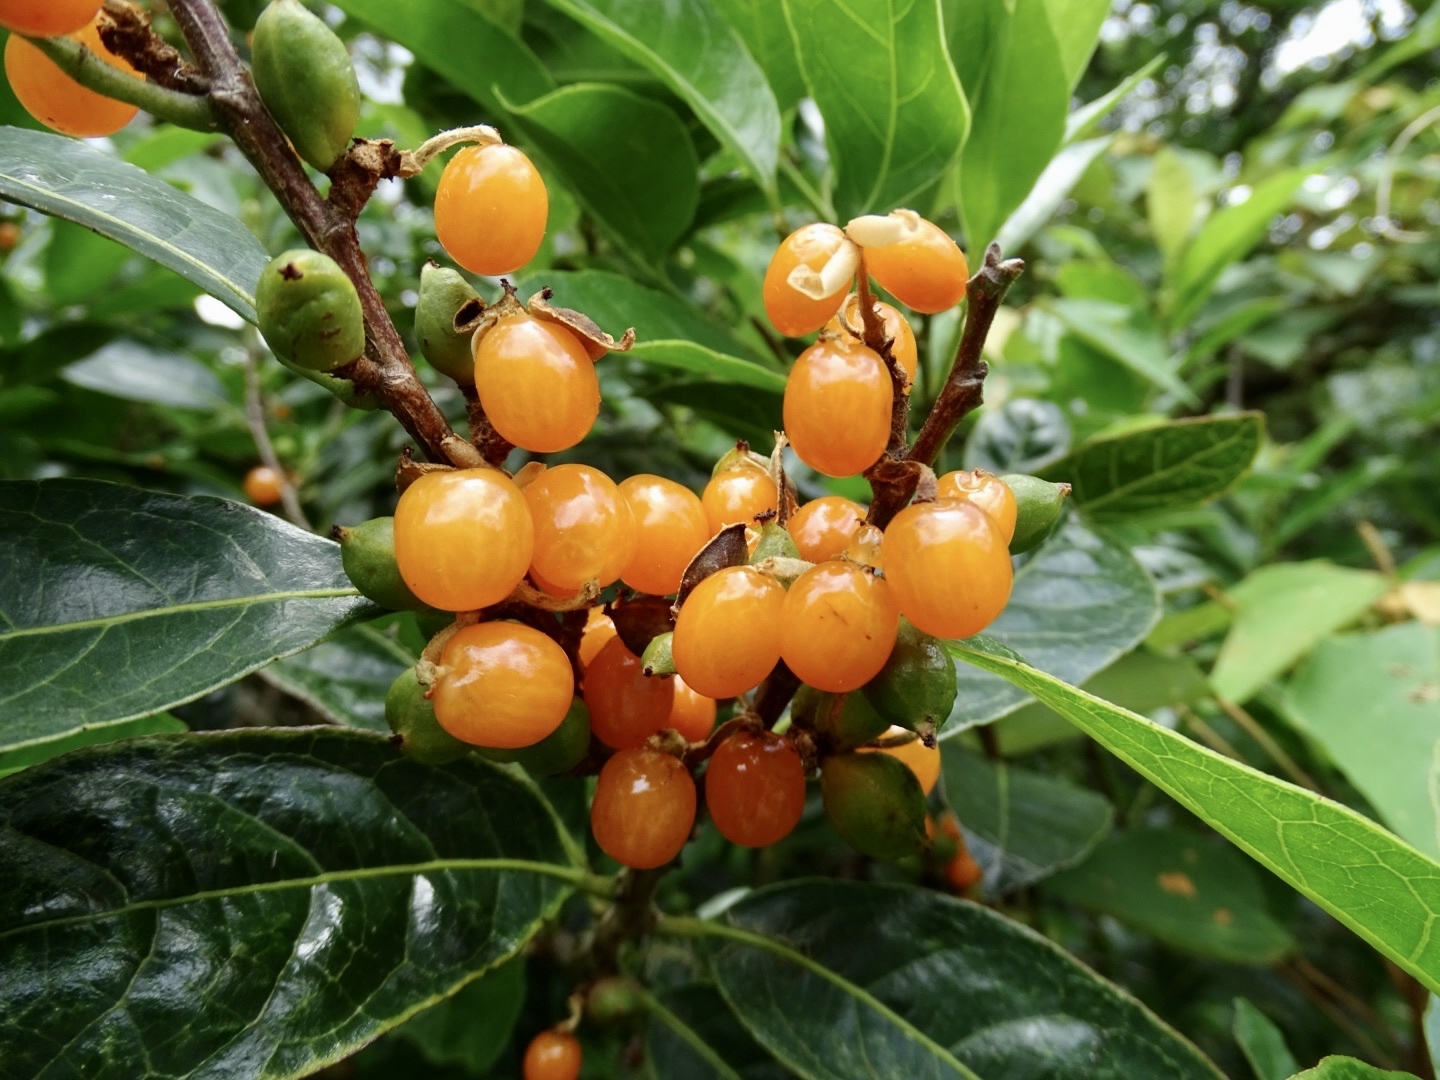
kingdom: Plantae
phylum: Tracheophyta
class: Magnoliopsida
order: Malpighiales
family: Phyllanthaceae
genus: Aporosa
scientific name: Aporosa octandra
